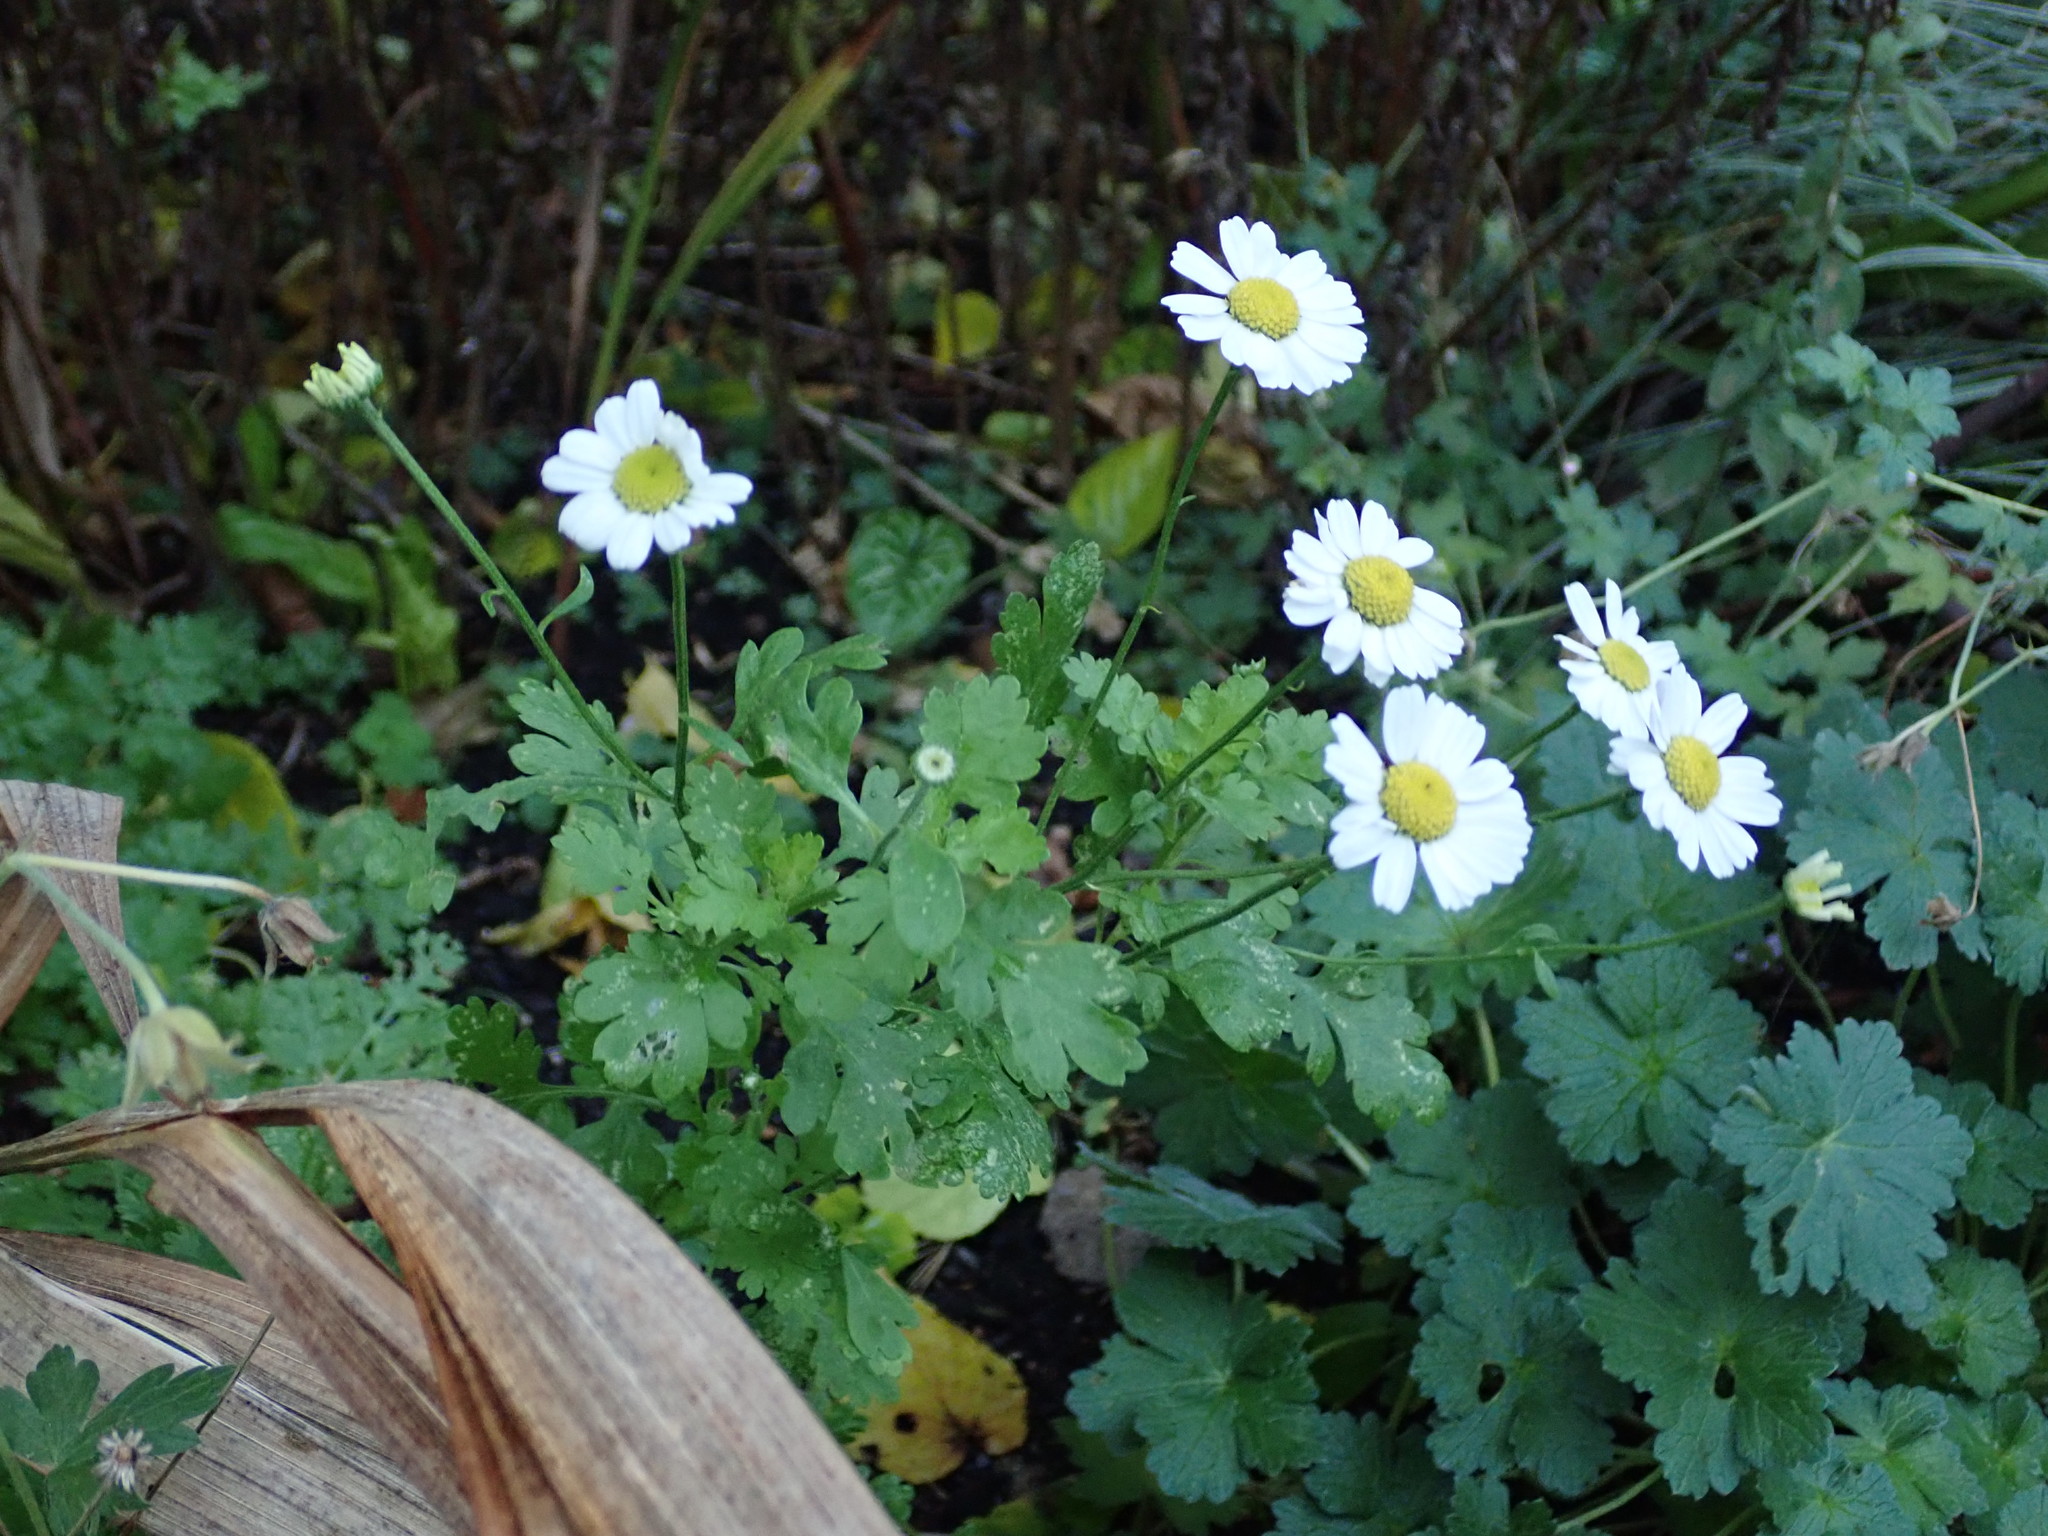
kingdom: Plantae
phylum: Tracheophyta
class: Magnoliopsida
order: Asterales
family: Asteraceae
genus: Tanacetum
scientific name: Tanacetum parthenium
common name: Feverfew
